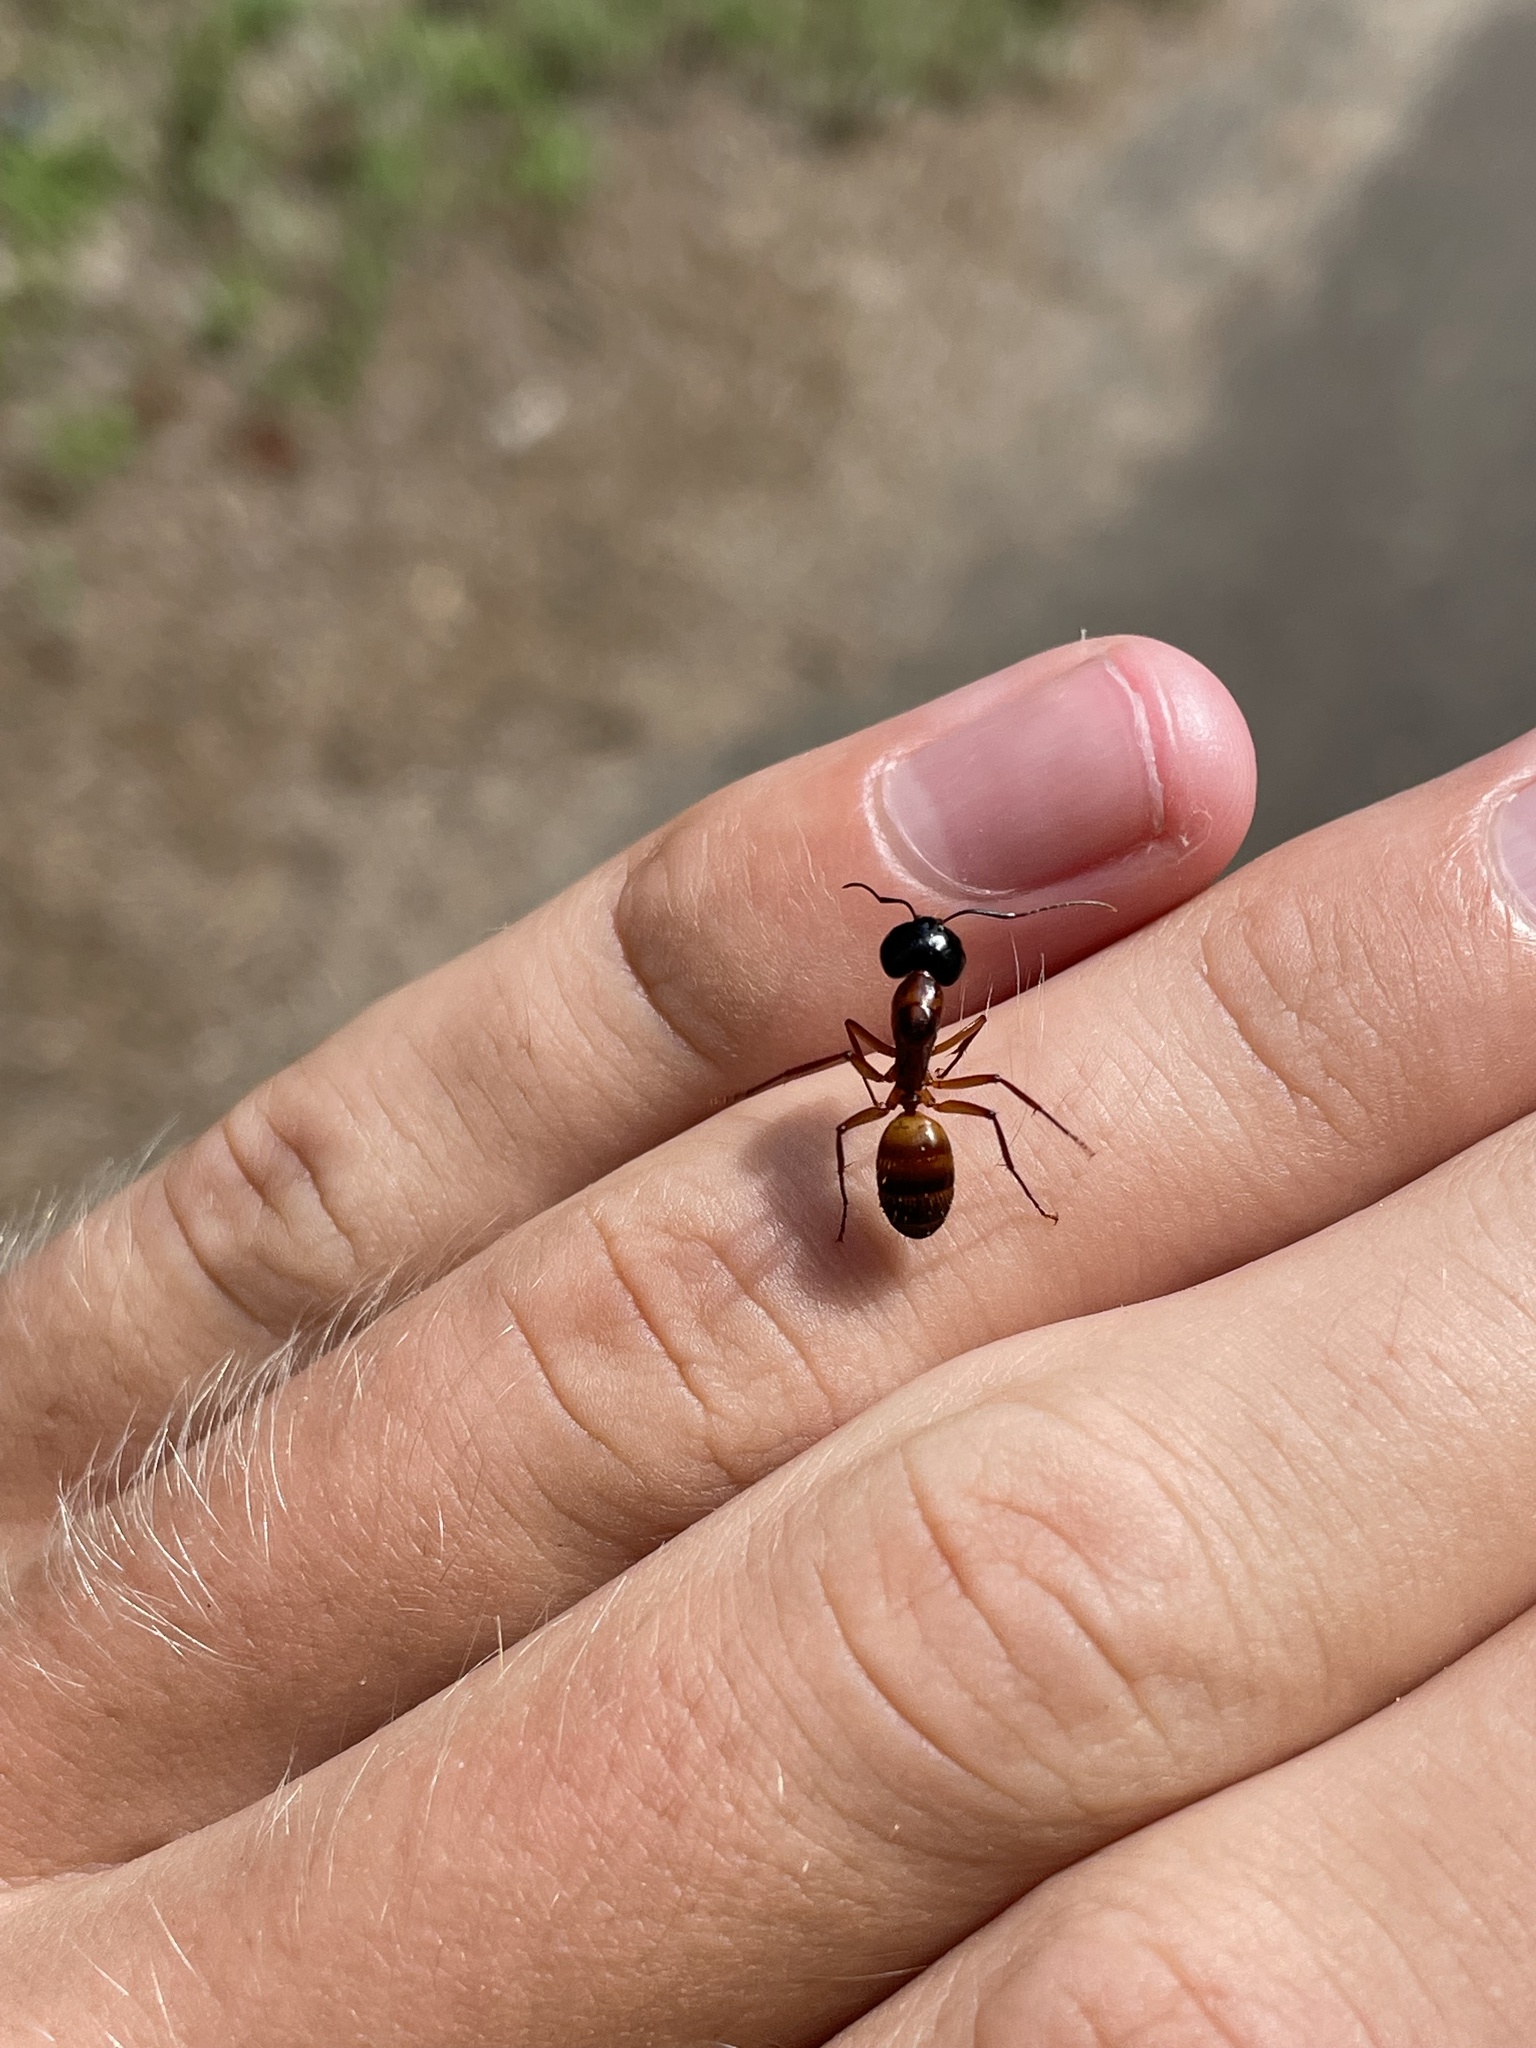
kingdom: Animalia
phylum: Arthropoda
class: Insecta
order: Hymenoptera
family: Formicidae
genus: Camponotus
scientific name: Camponotus americanus
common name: American carpenter ant
